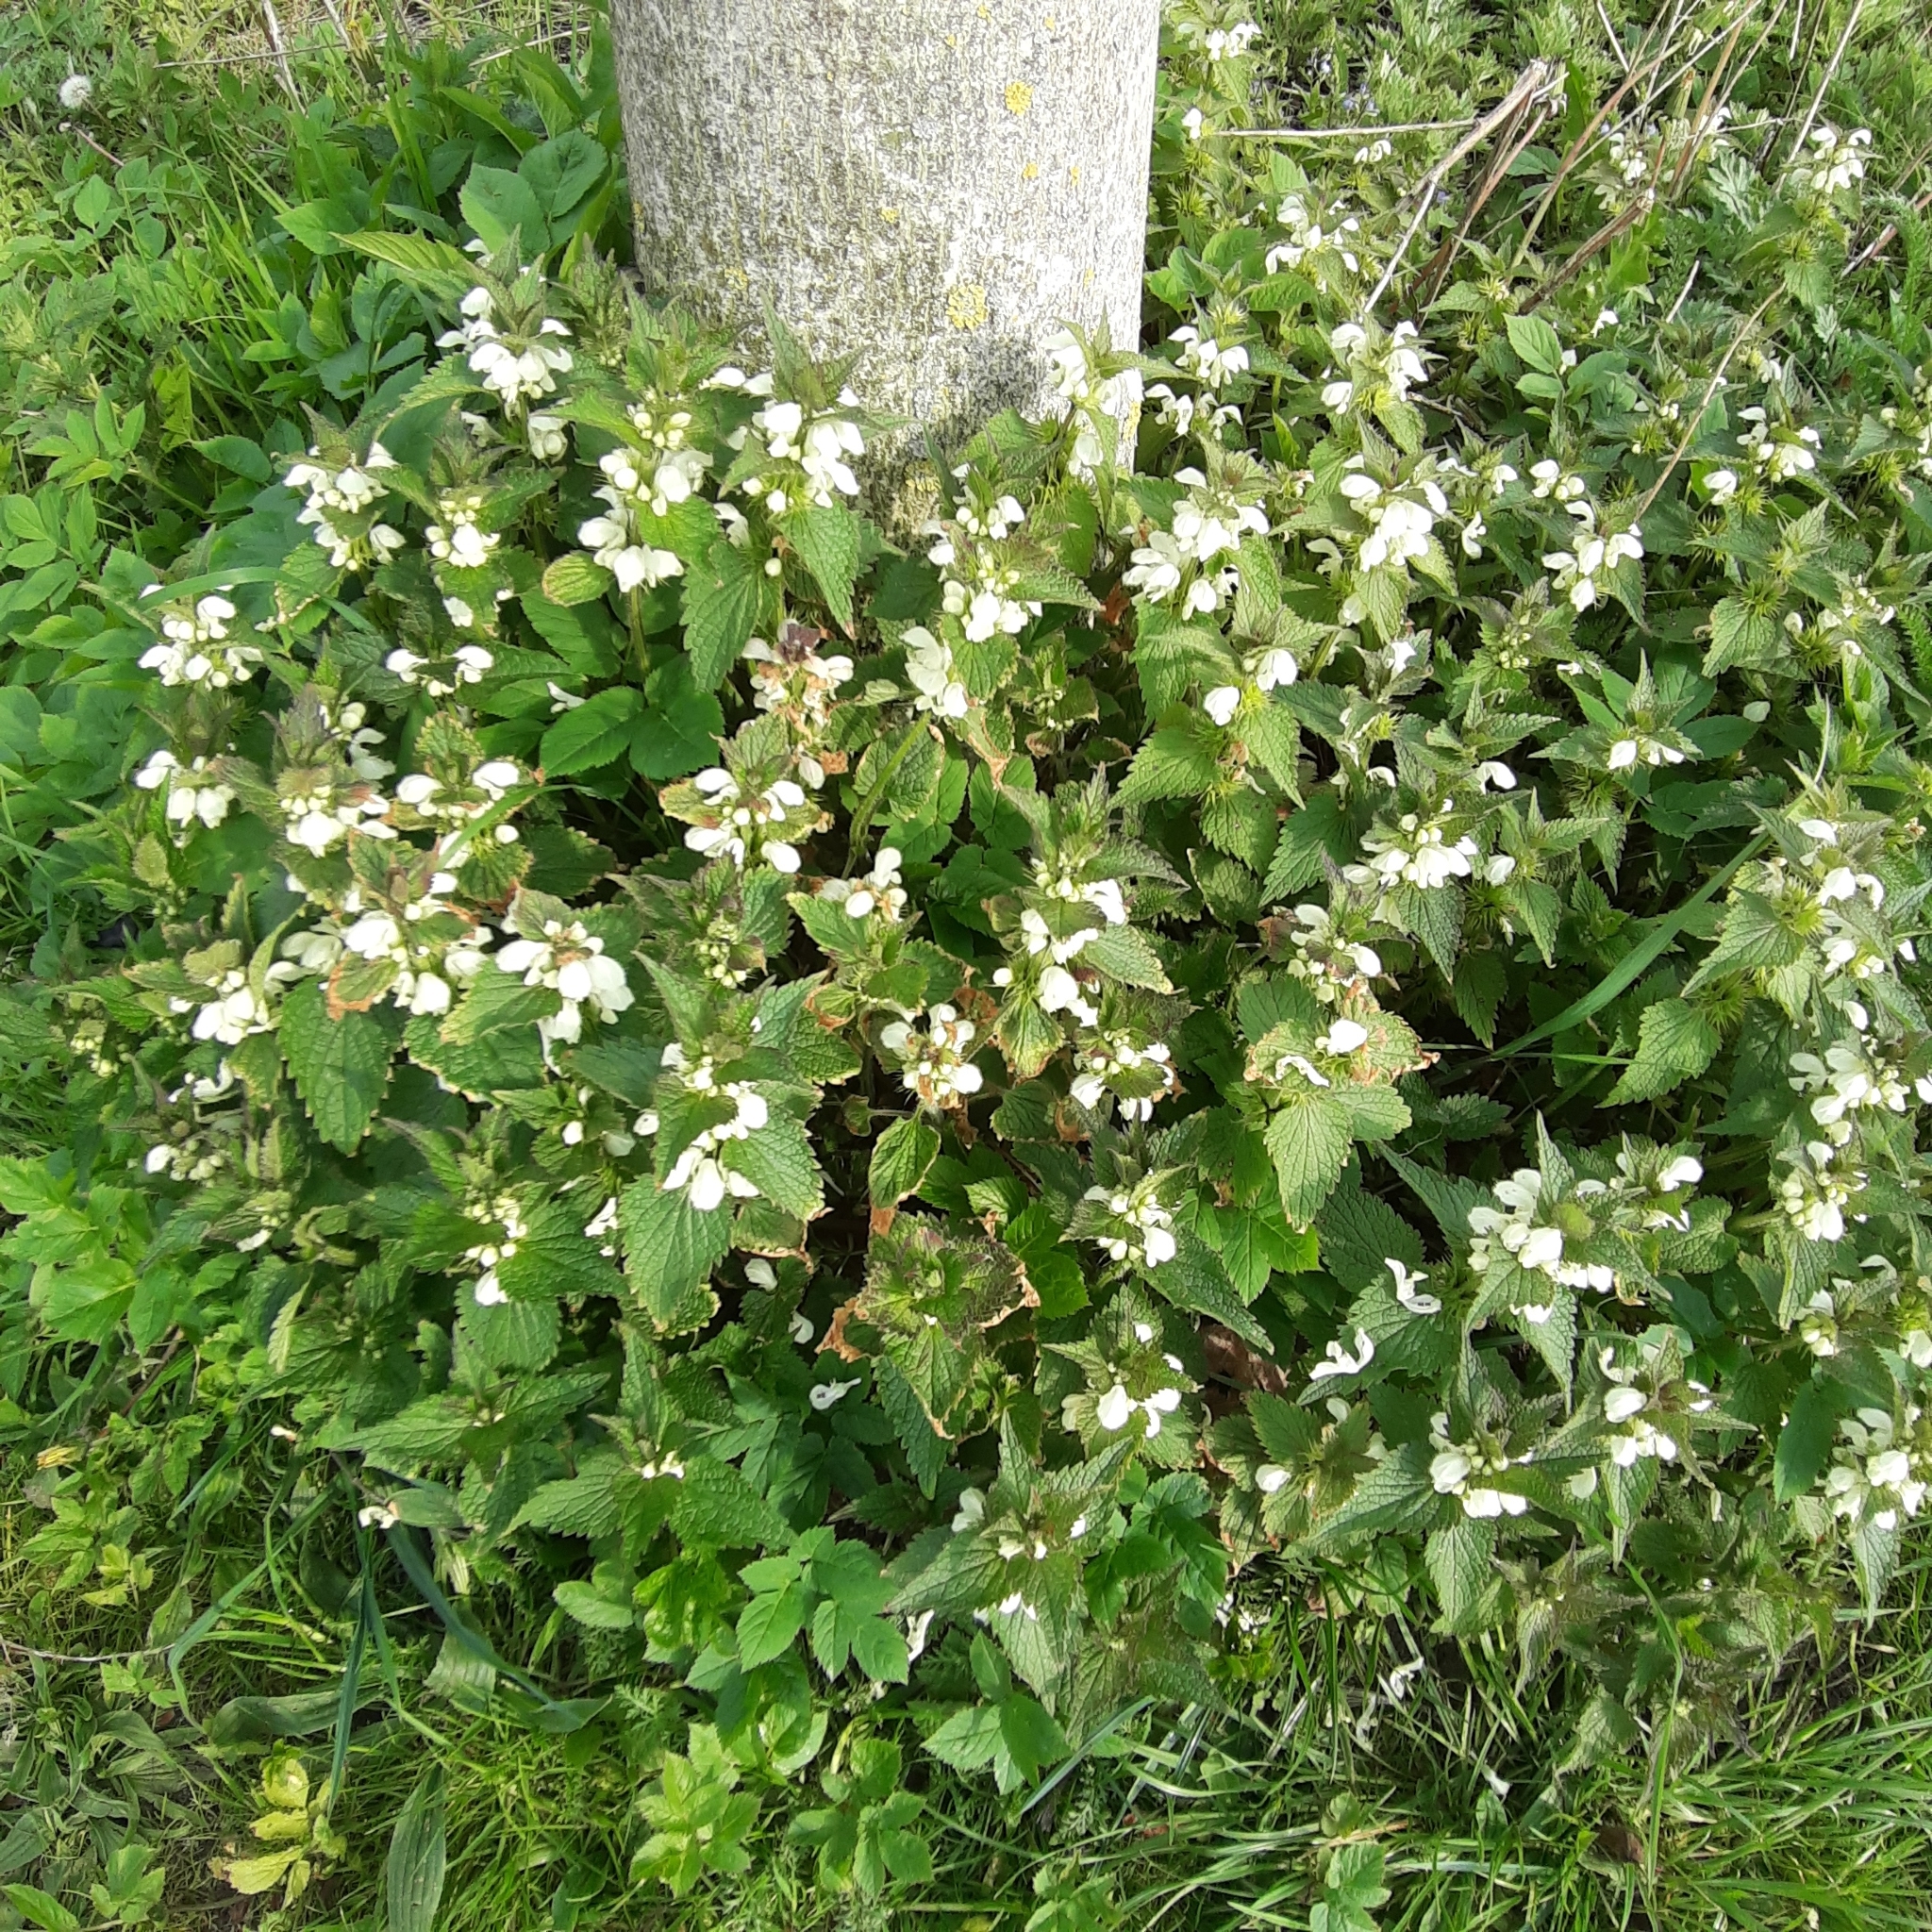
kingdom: Plantae
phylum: Tracheophyta
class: Magnoliopsida
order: Lamiales
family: Lamiaceae
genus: Lamium
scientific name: Lamium album
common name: White dead-nettle
